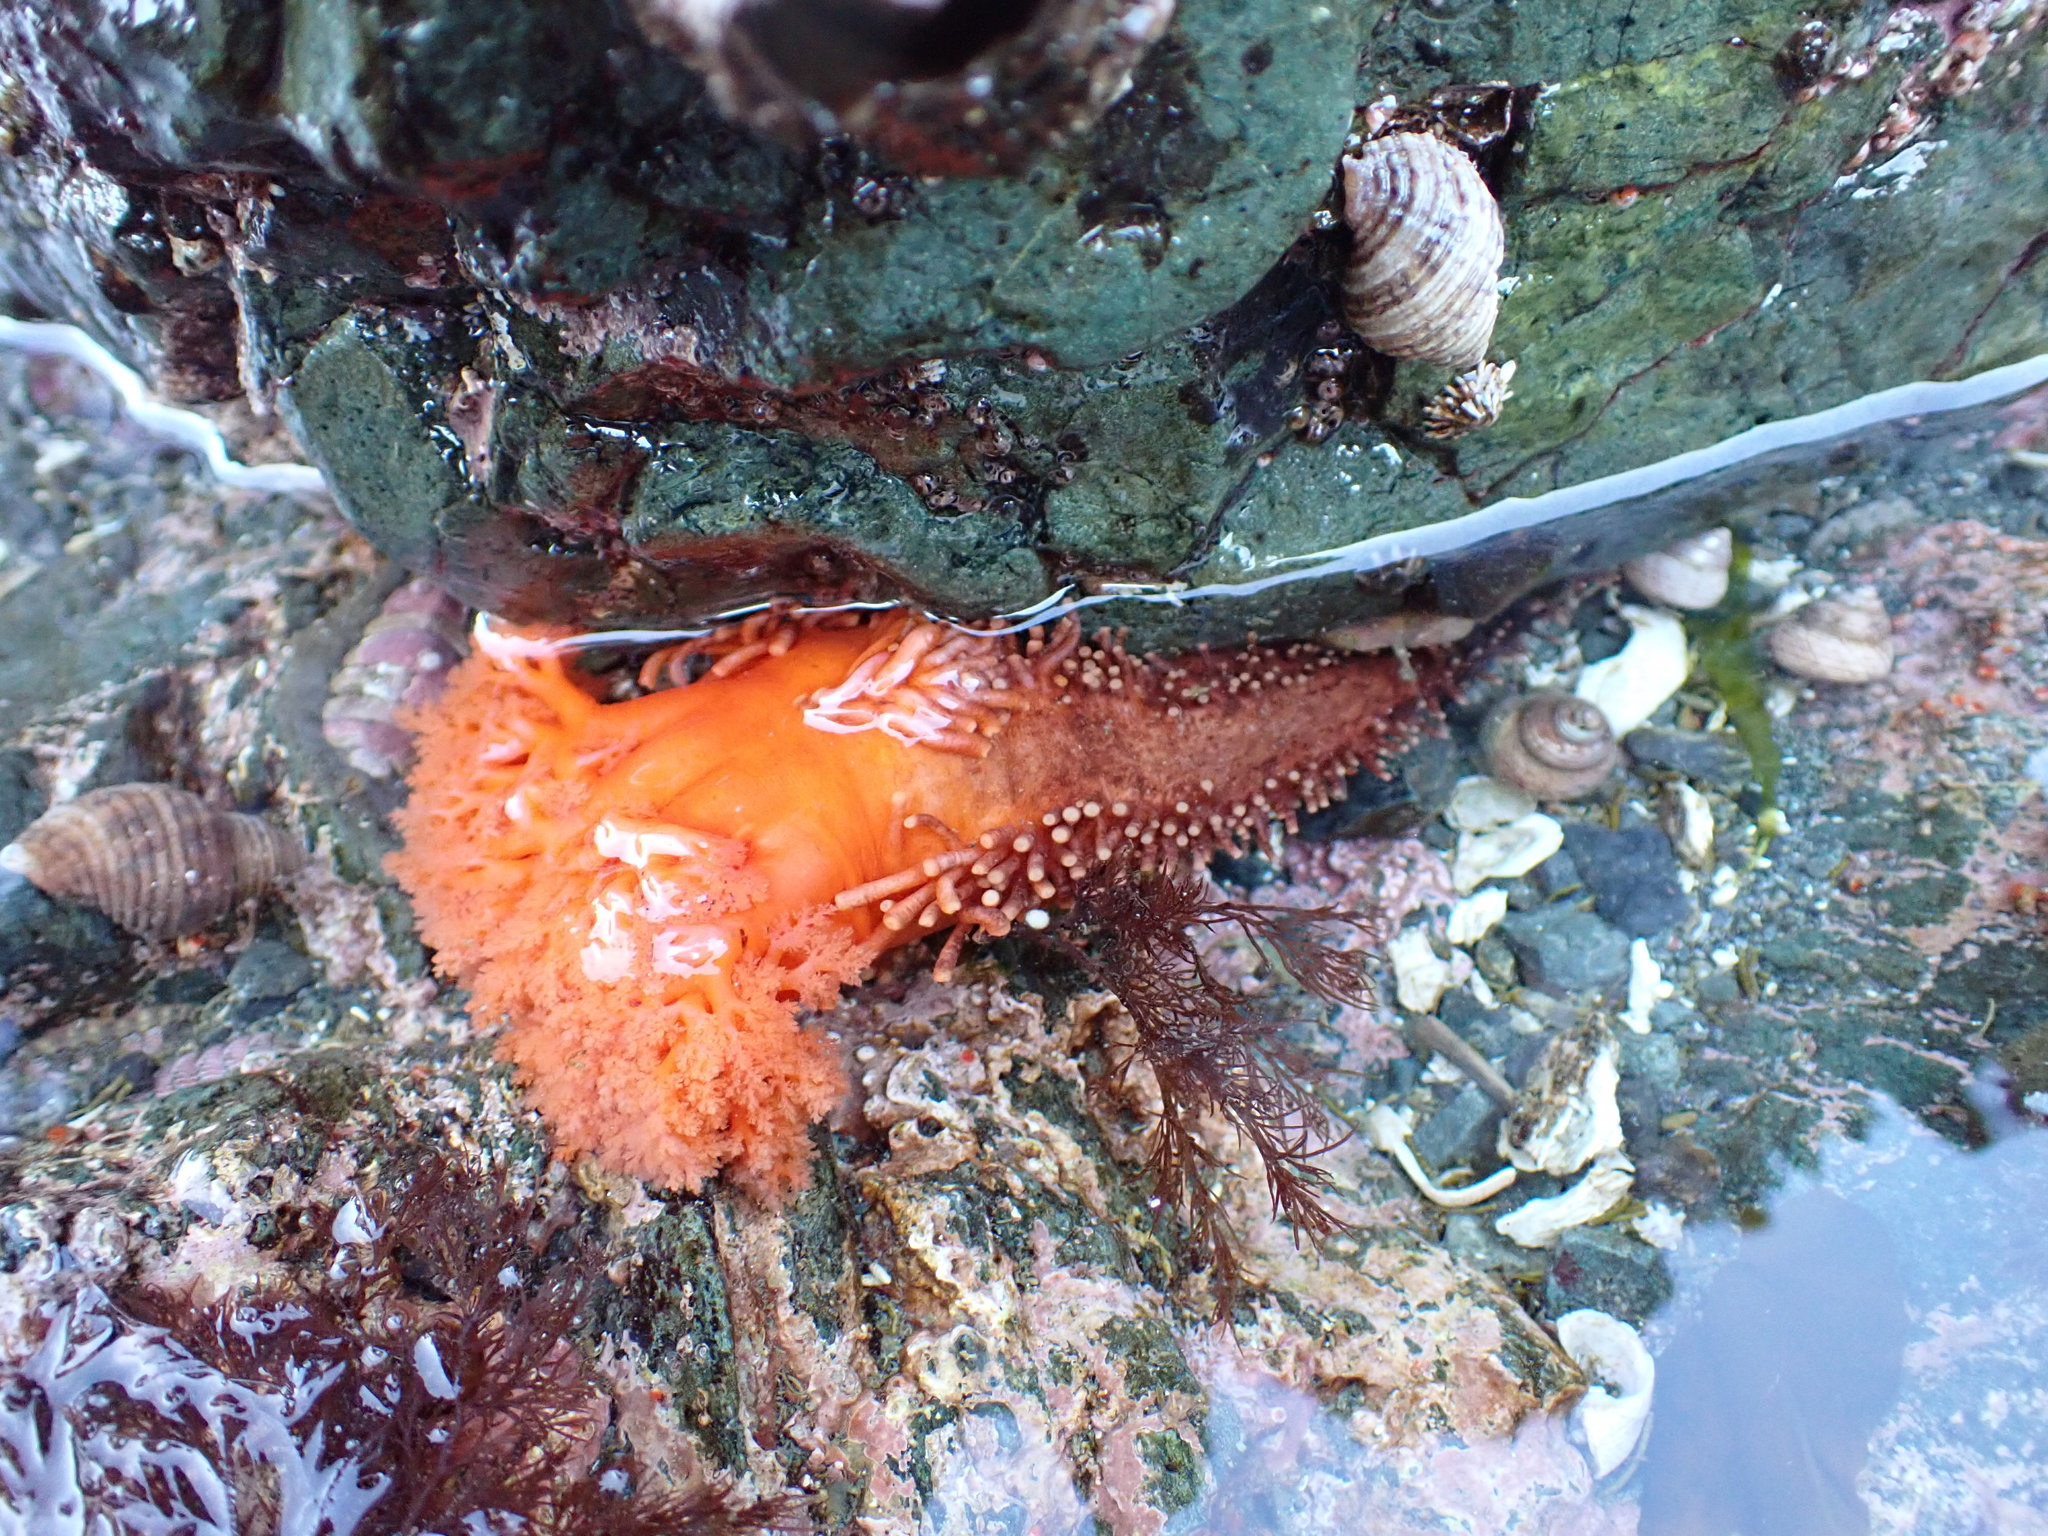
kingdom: Animalia
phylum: Echinodermata
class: Holothuroidea
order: Dendrochirotida
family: Cucumariidae
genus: Cucumaria
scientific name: Cucumaria miniata
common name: Orange sea cucumber
